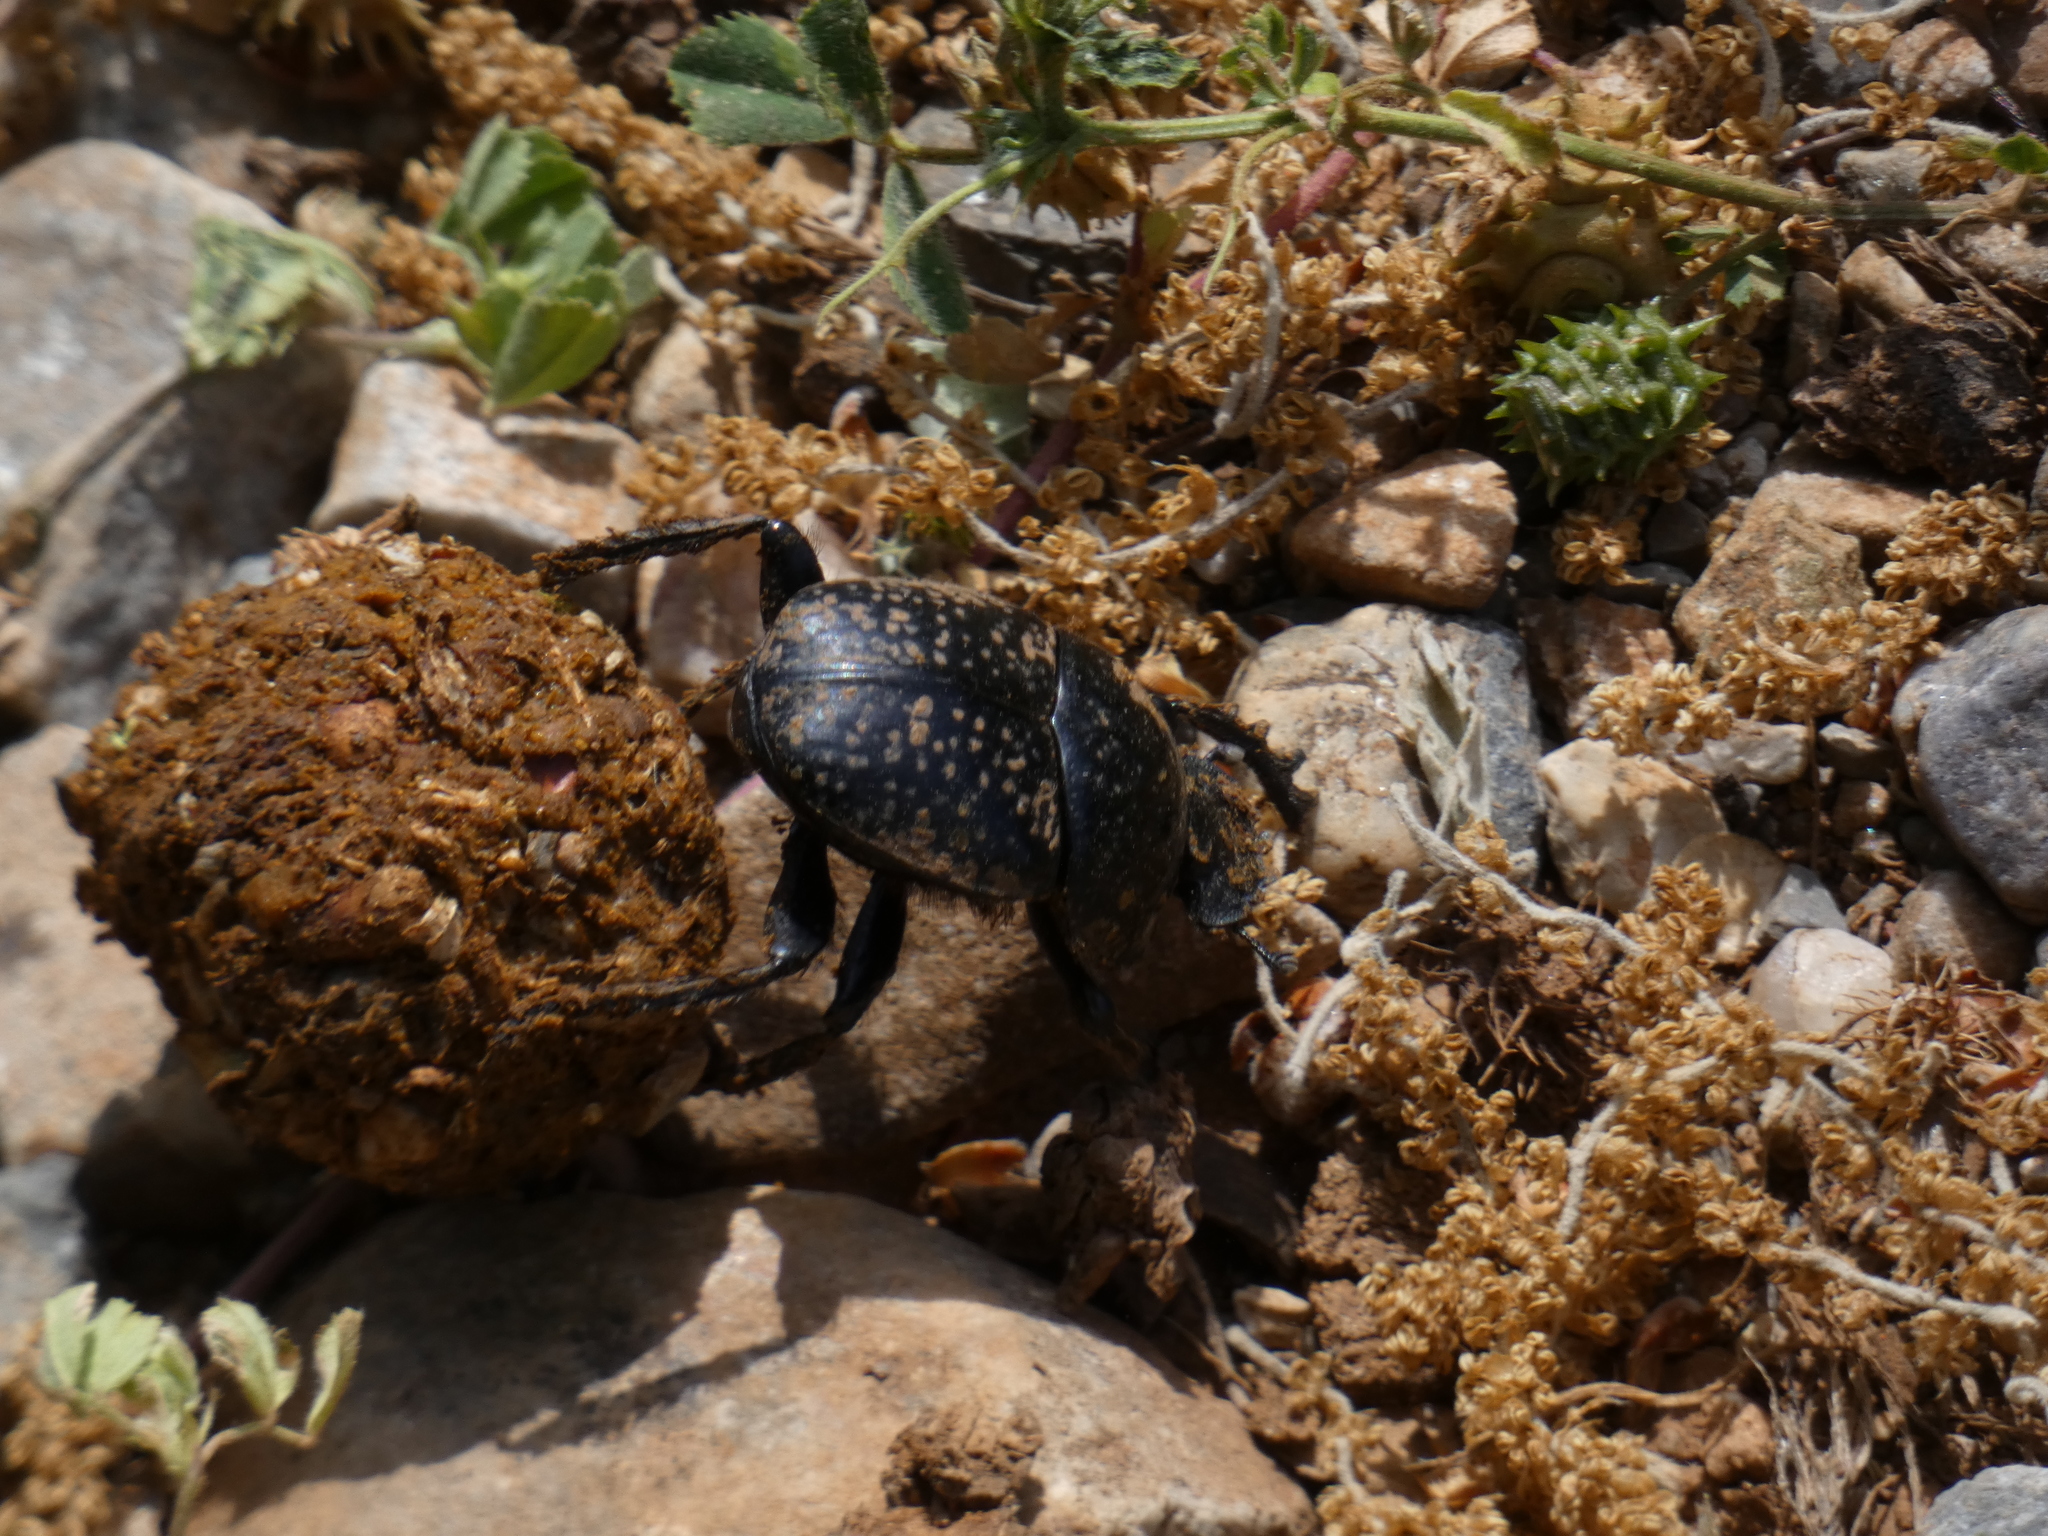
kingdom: Animalia
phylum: Arthropoda
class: Insecta
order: Coleoptera
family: Scarabaeidae
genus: Ateuchetus
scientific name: Ateuchetus
